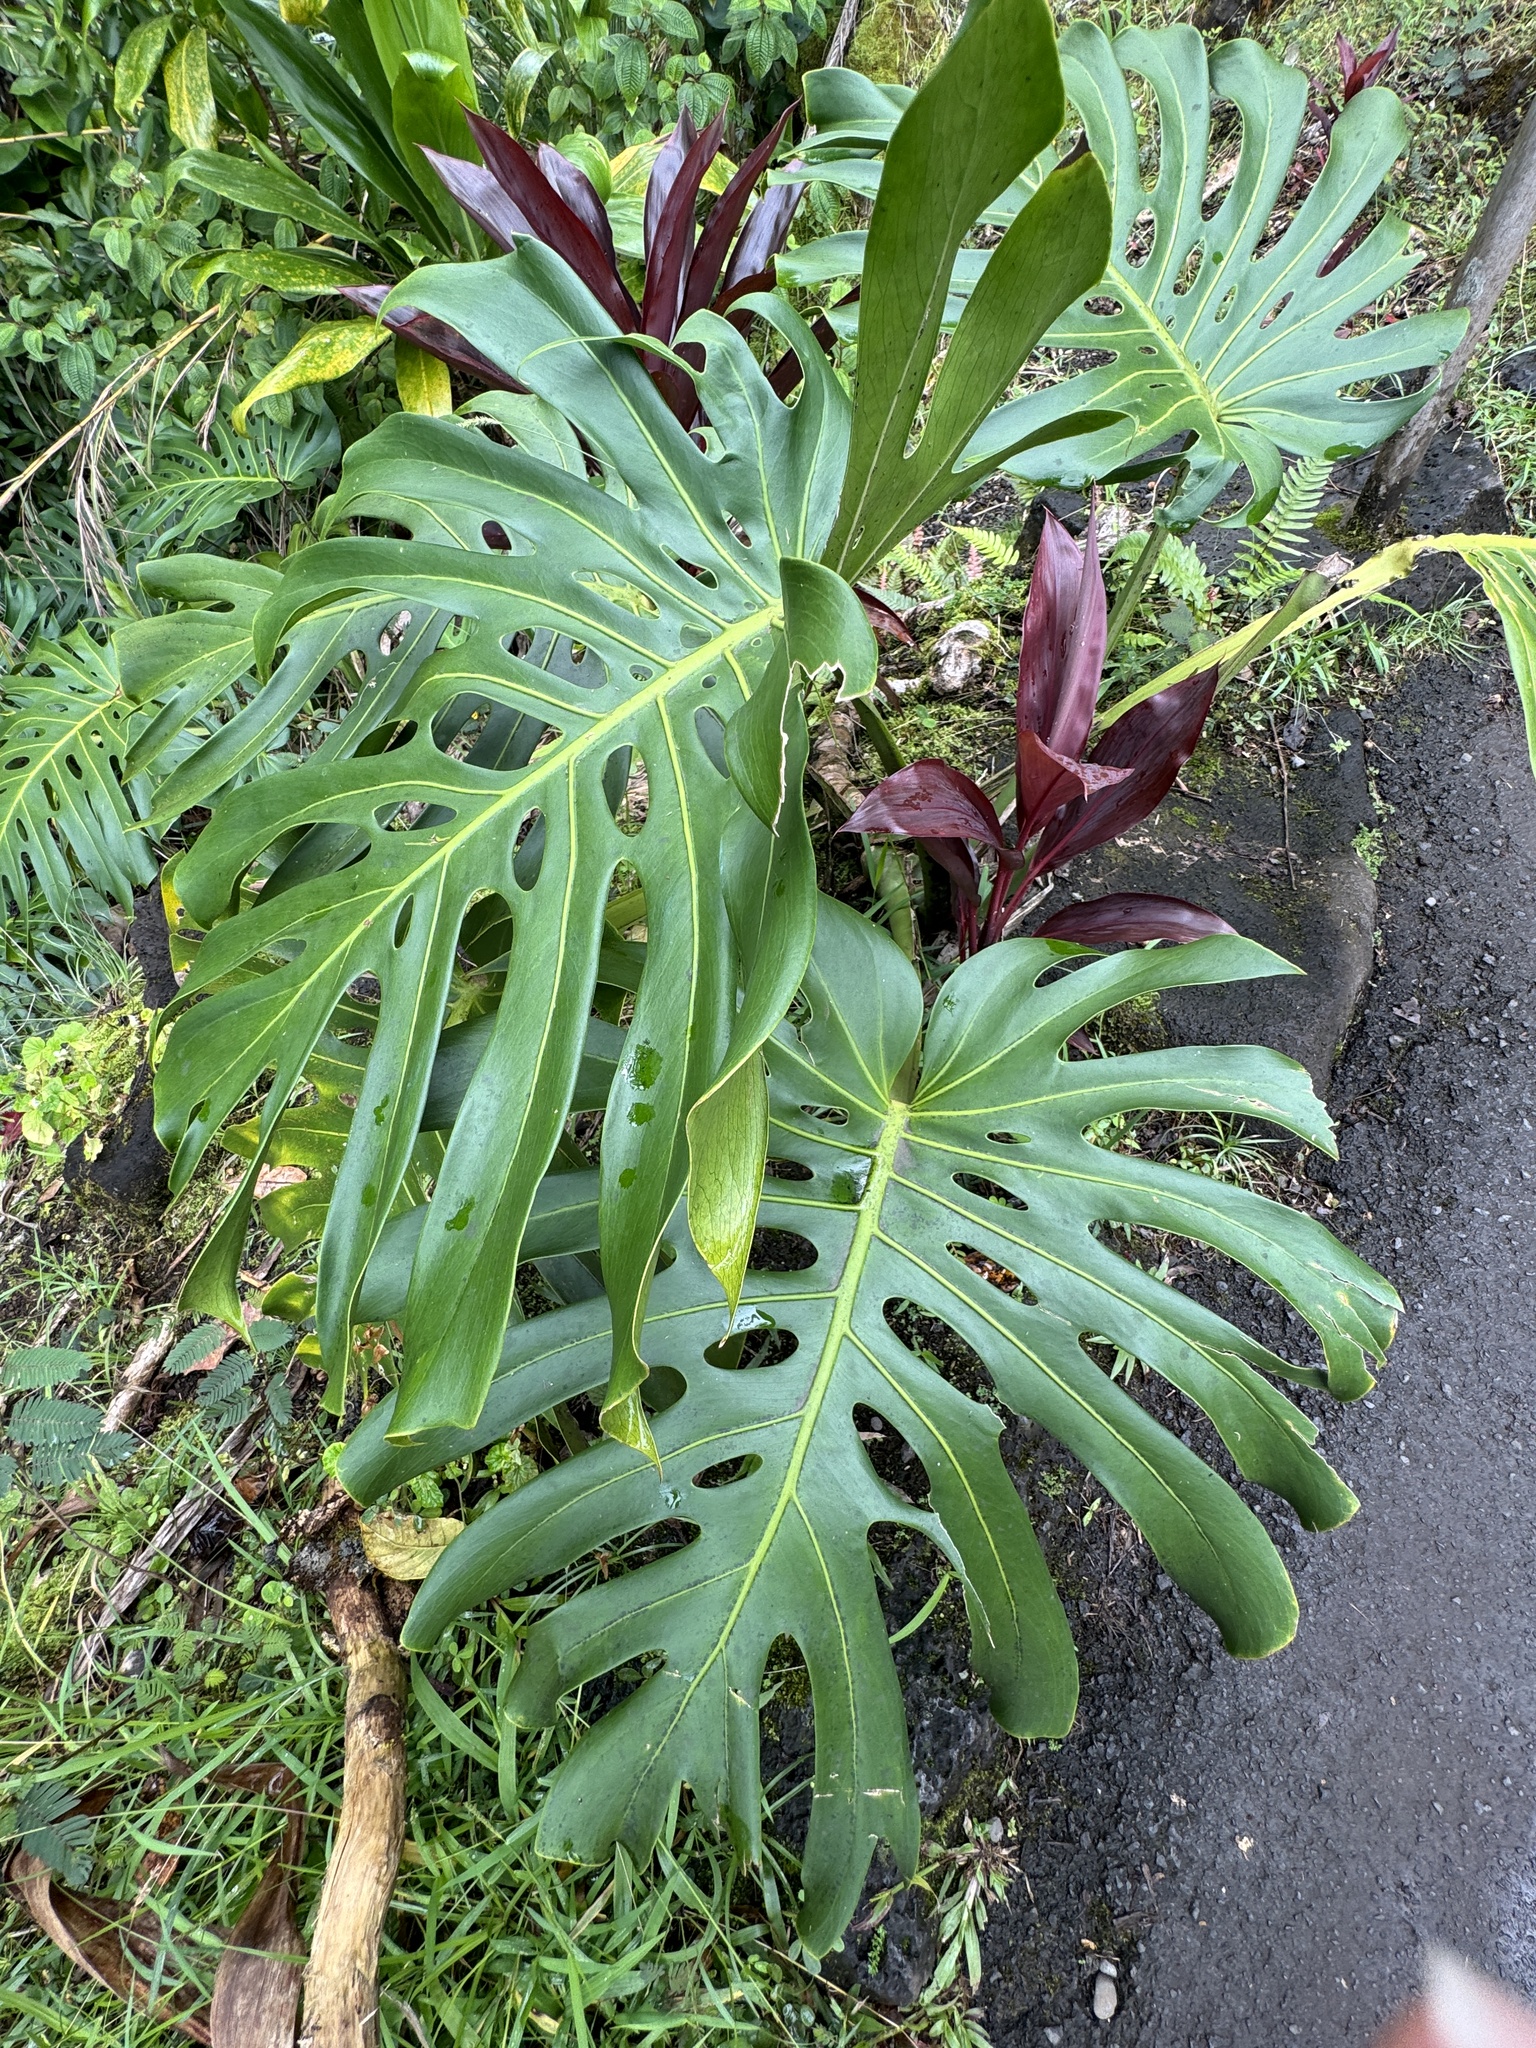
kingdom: Plantae
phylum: Tracheophyta
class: Liliopsida
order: Alismatales
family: Araceae
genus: Monstera
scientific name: Monstera deliciosa
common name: Cut-leaf-philodendron
